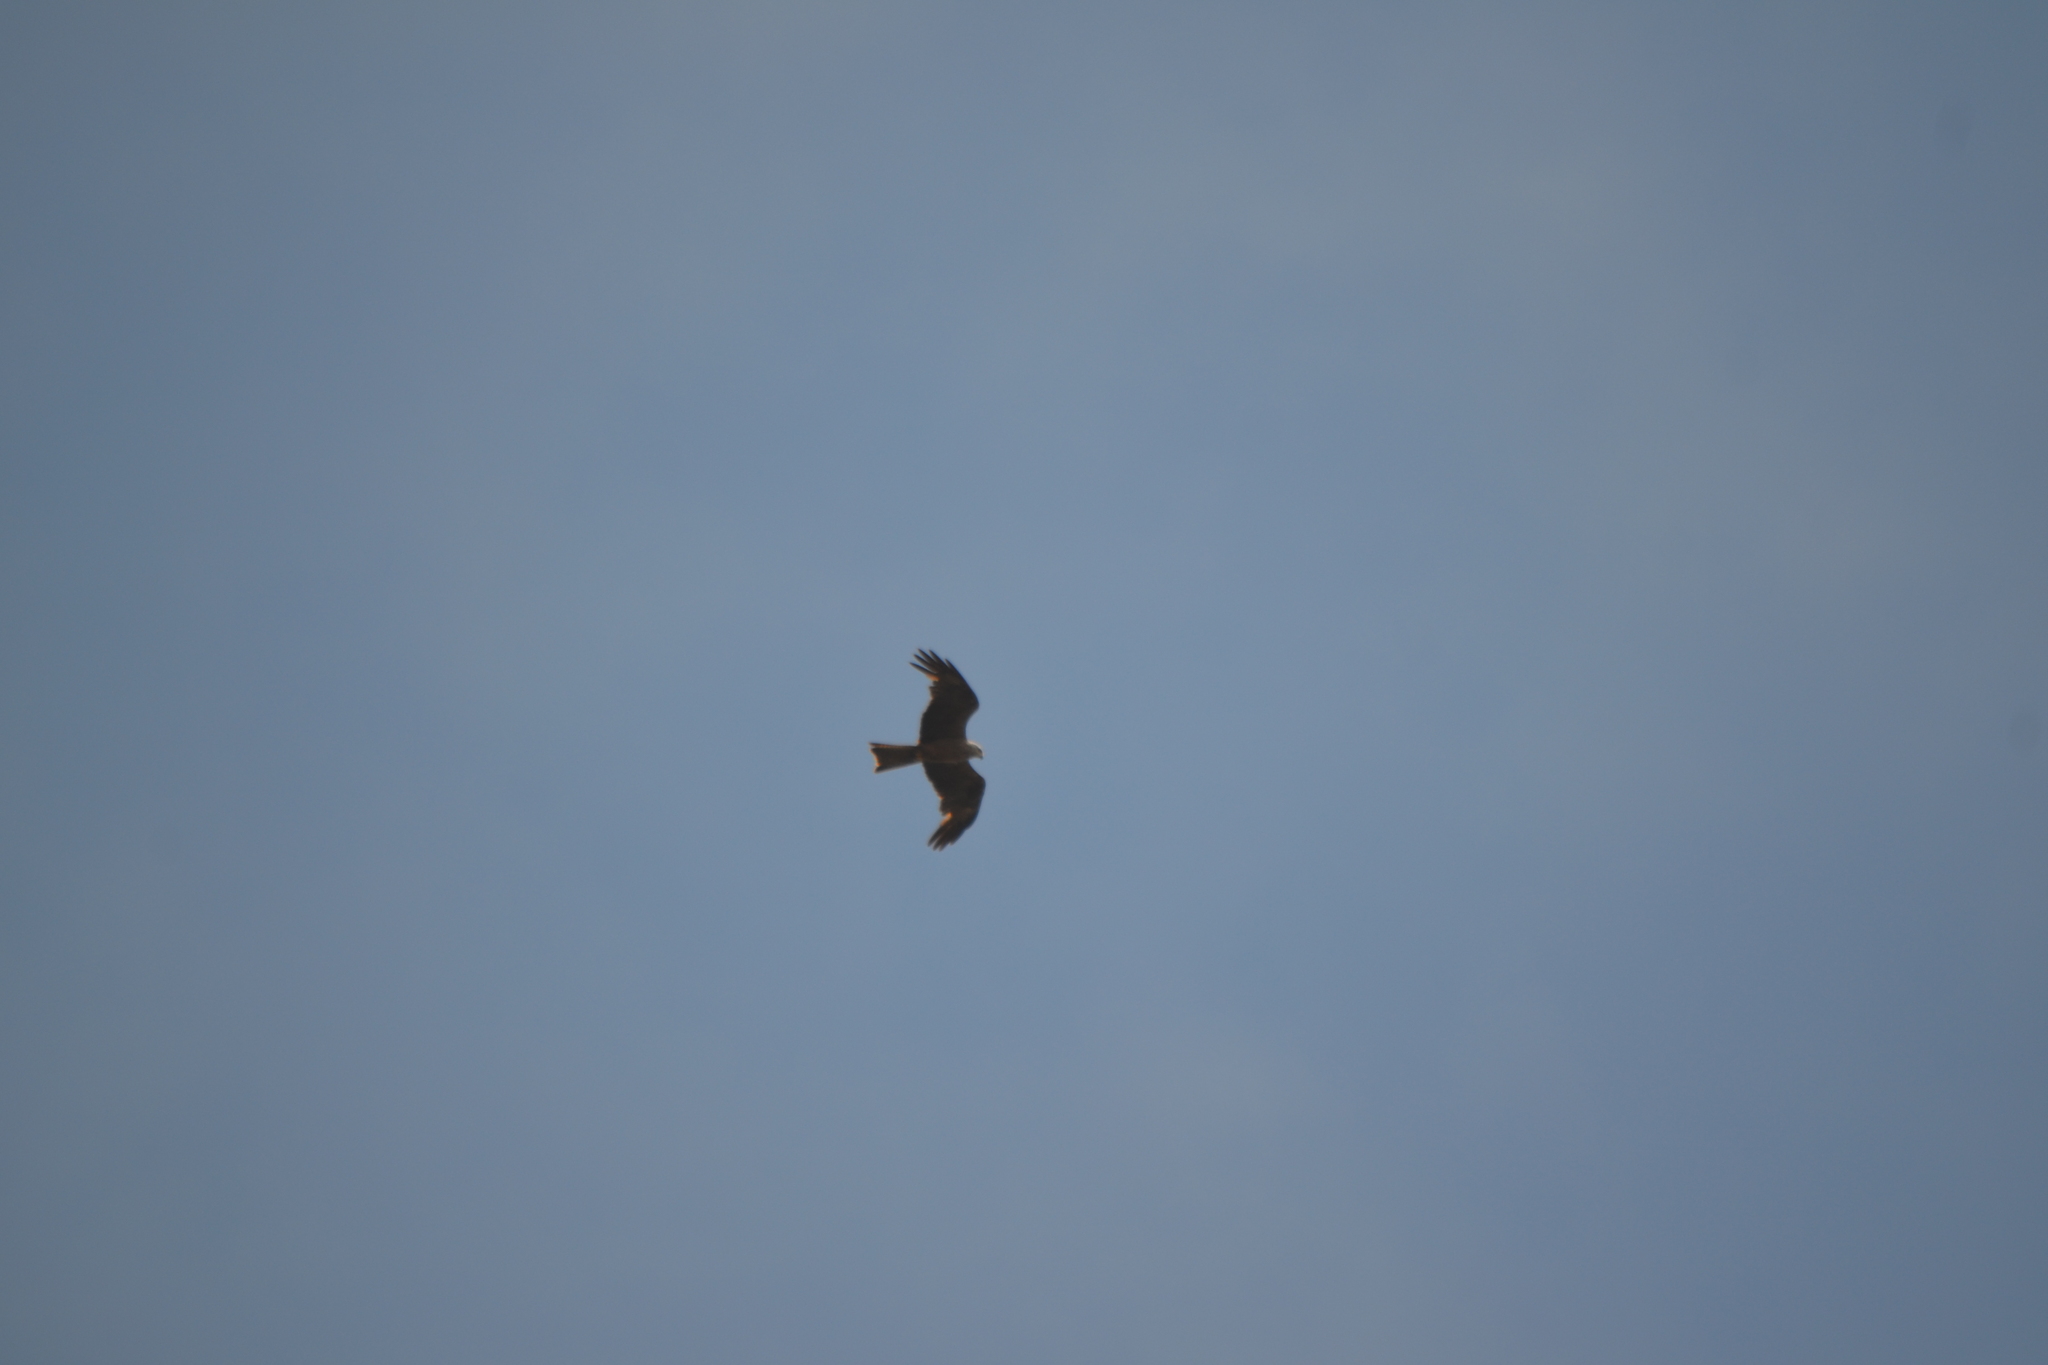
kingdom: Animalia
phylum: Chordata
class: Aves
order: Accipitriformes
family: Accipitridae
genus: Milvus
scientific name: Milvus migrans
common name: Black kite
